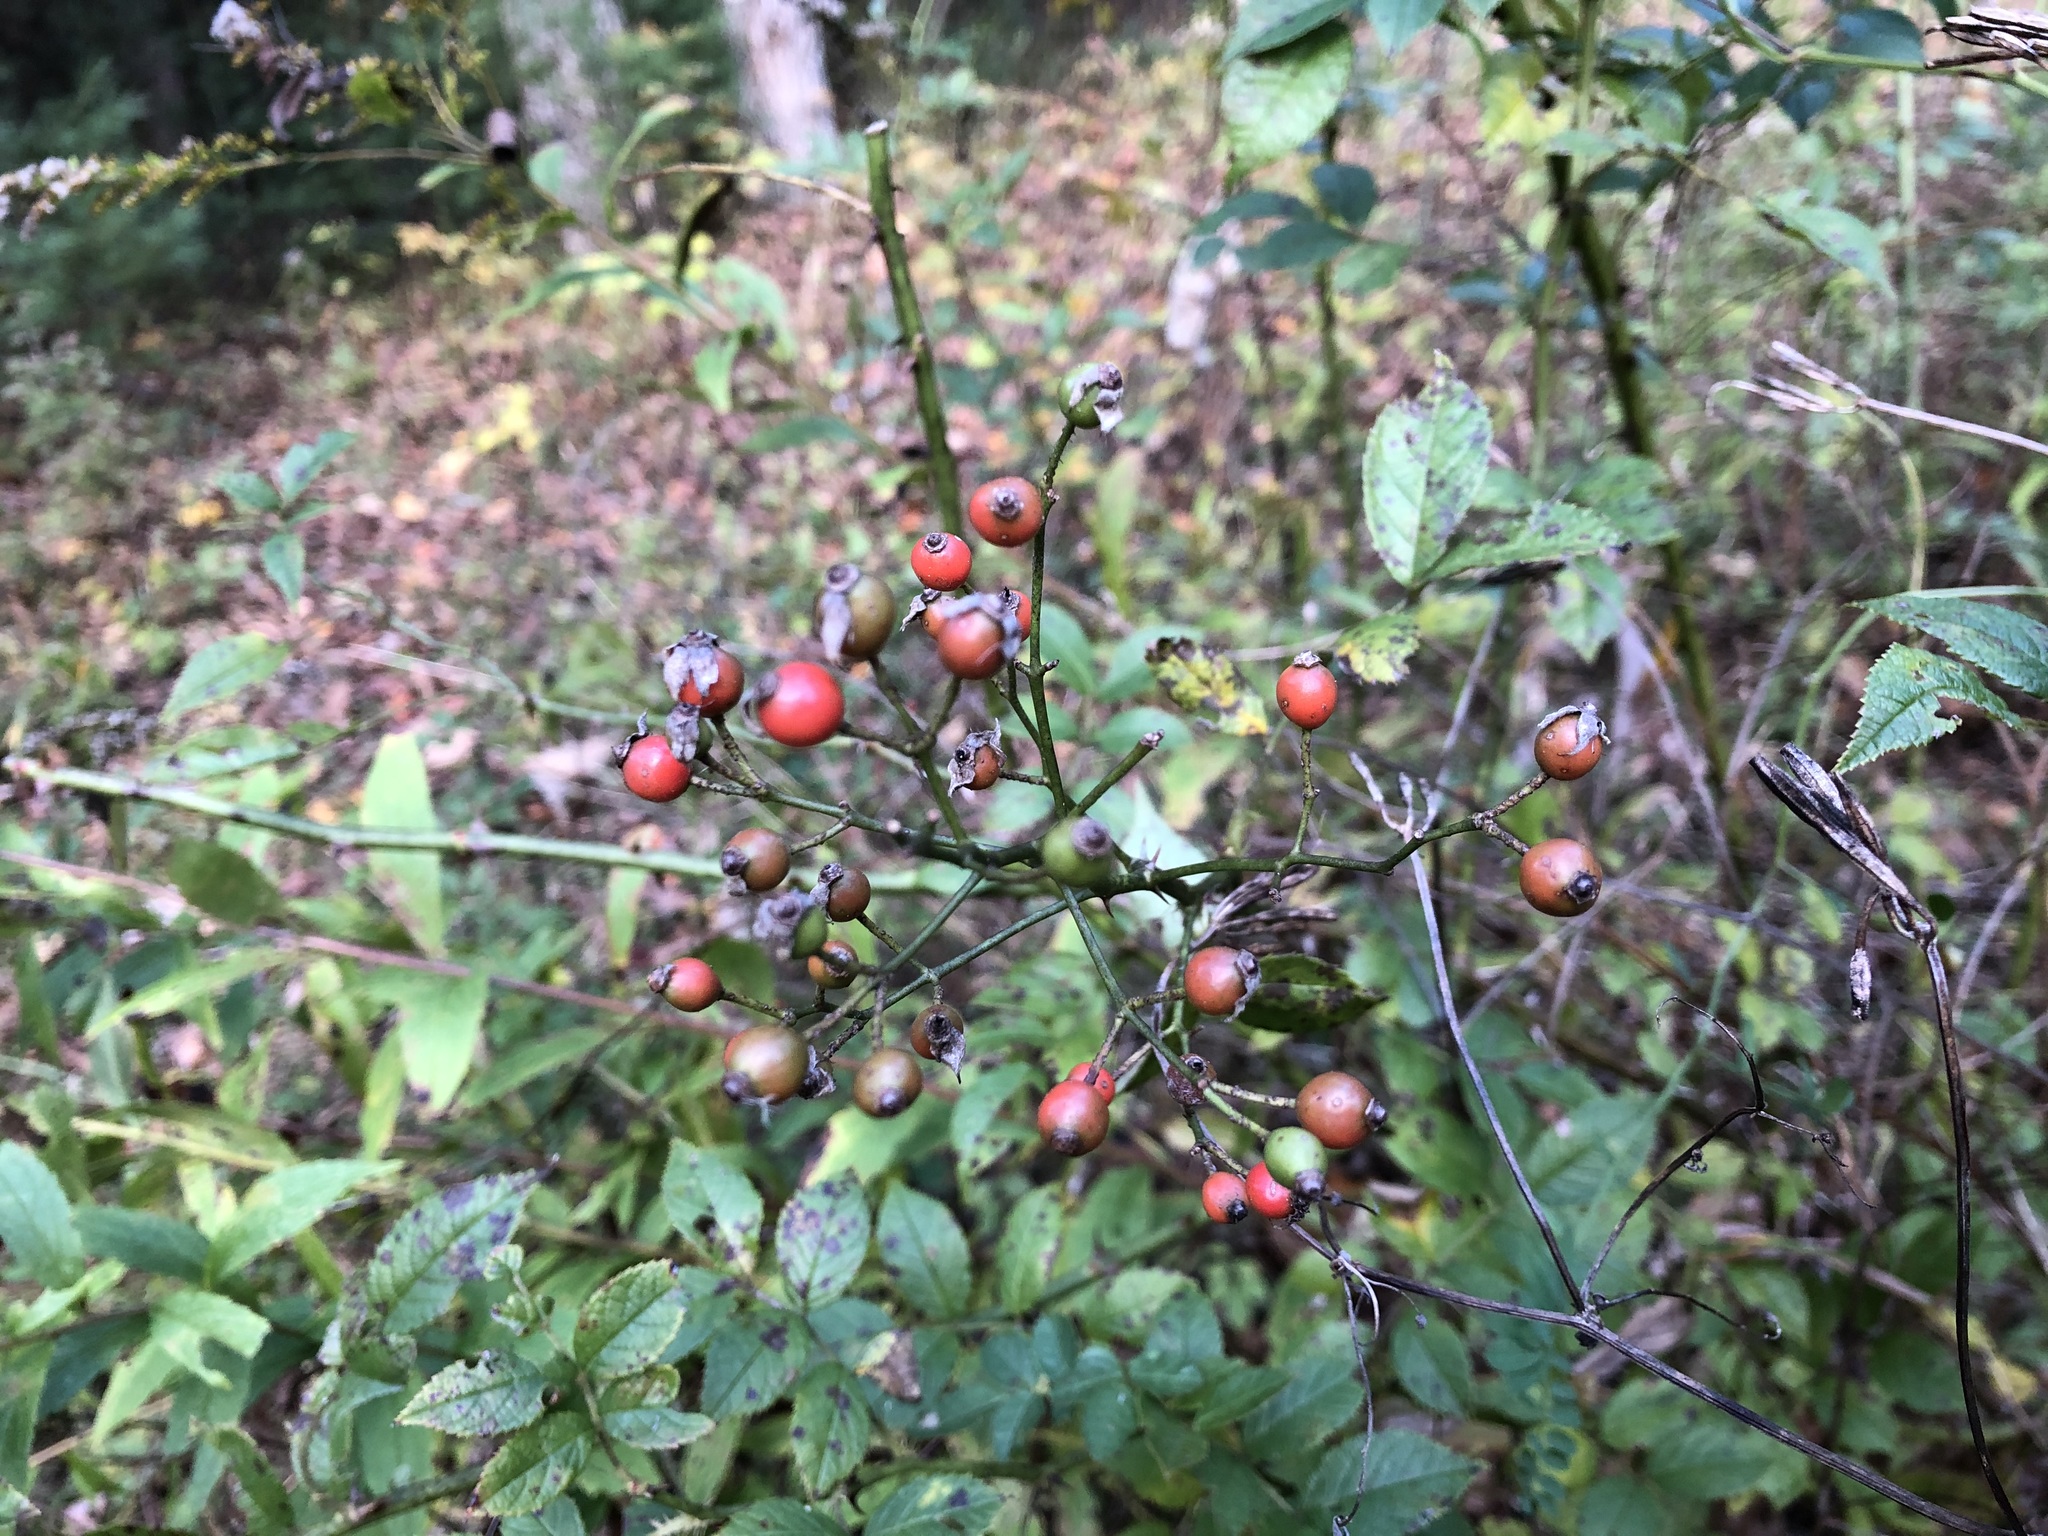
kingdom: Plantae
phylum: Tracheophyta
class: Magnoliopsida
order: Rosales
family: Rosaceae
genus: Rosa
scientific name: Rosa multiflora
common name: Multiflora rose
